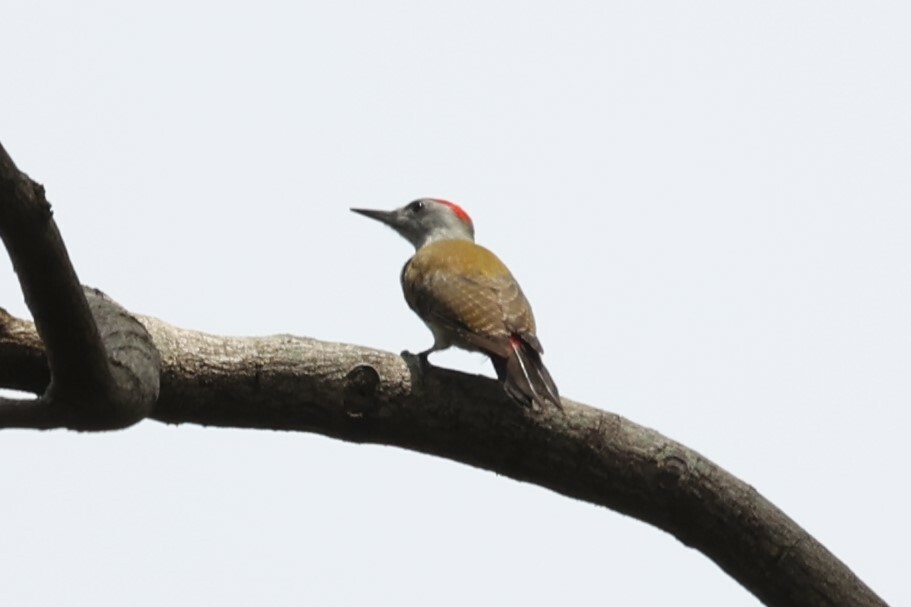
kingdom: Animalia
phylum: Chordata
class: Aves
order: Piciformes
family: Picidae
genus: Dendropicos
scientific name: Dendropicos goertae
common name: African grey woodpecker
